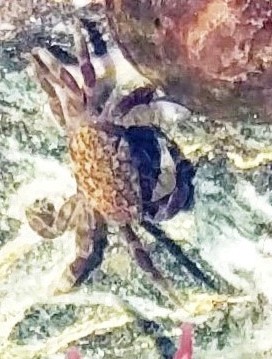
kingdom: Animalia
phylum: Arthropoda
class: Malacostraca
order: Decapoda
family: Varunidae
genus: Hemigrapsus
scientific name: Hemigrapsus oregonensis
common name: Yellow shore crab
